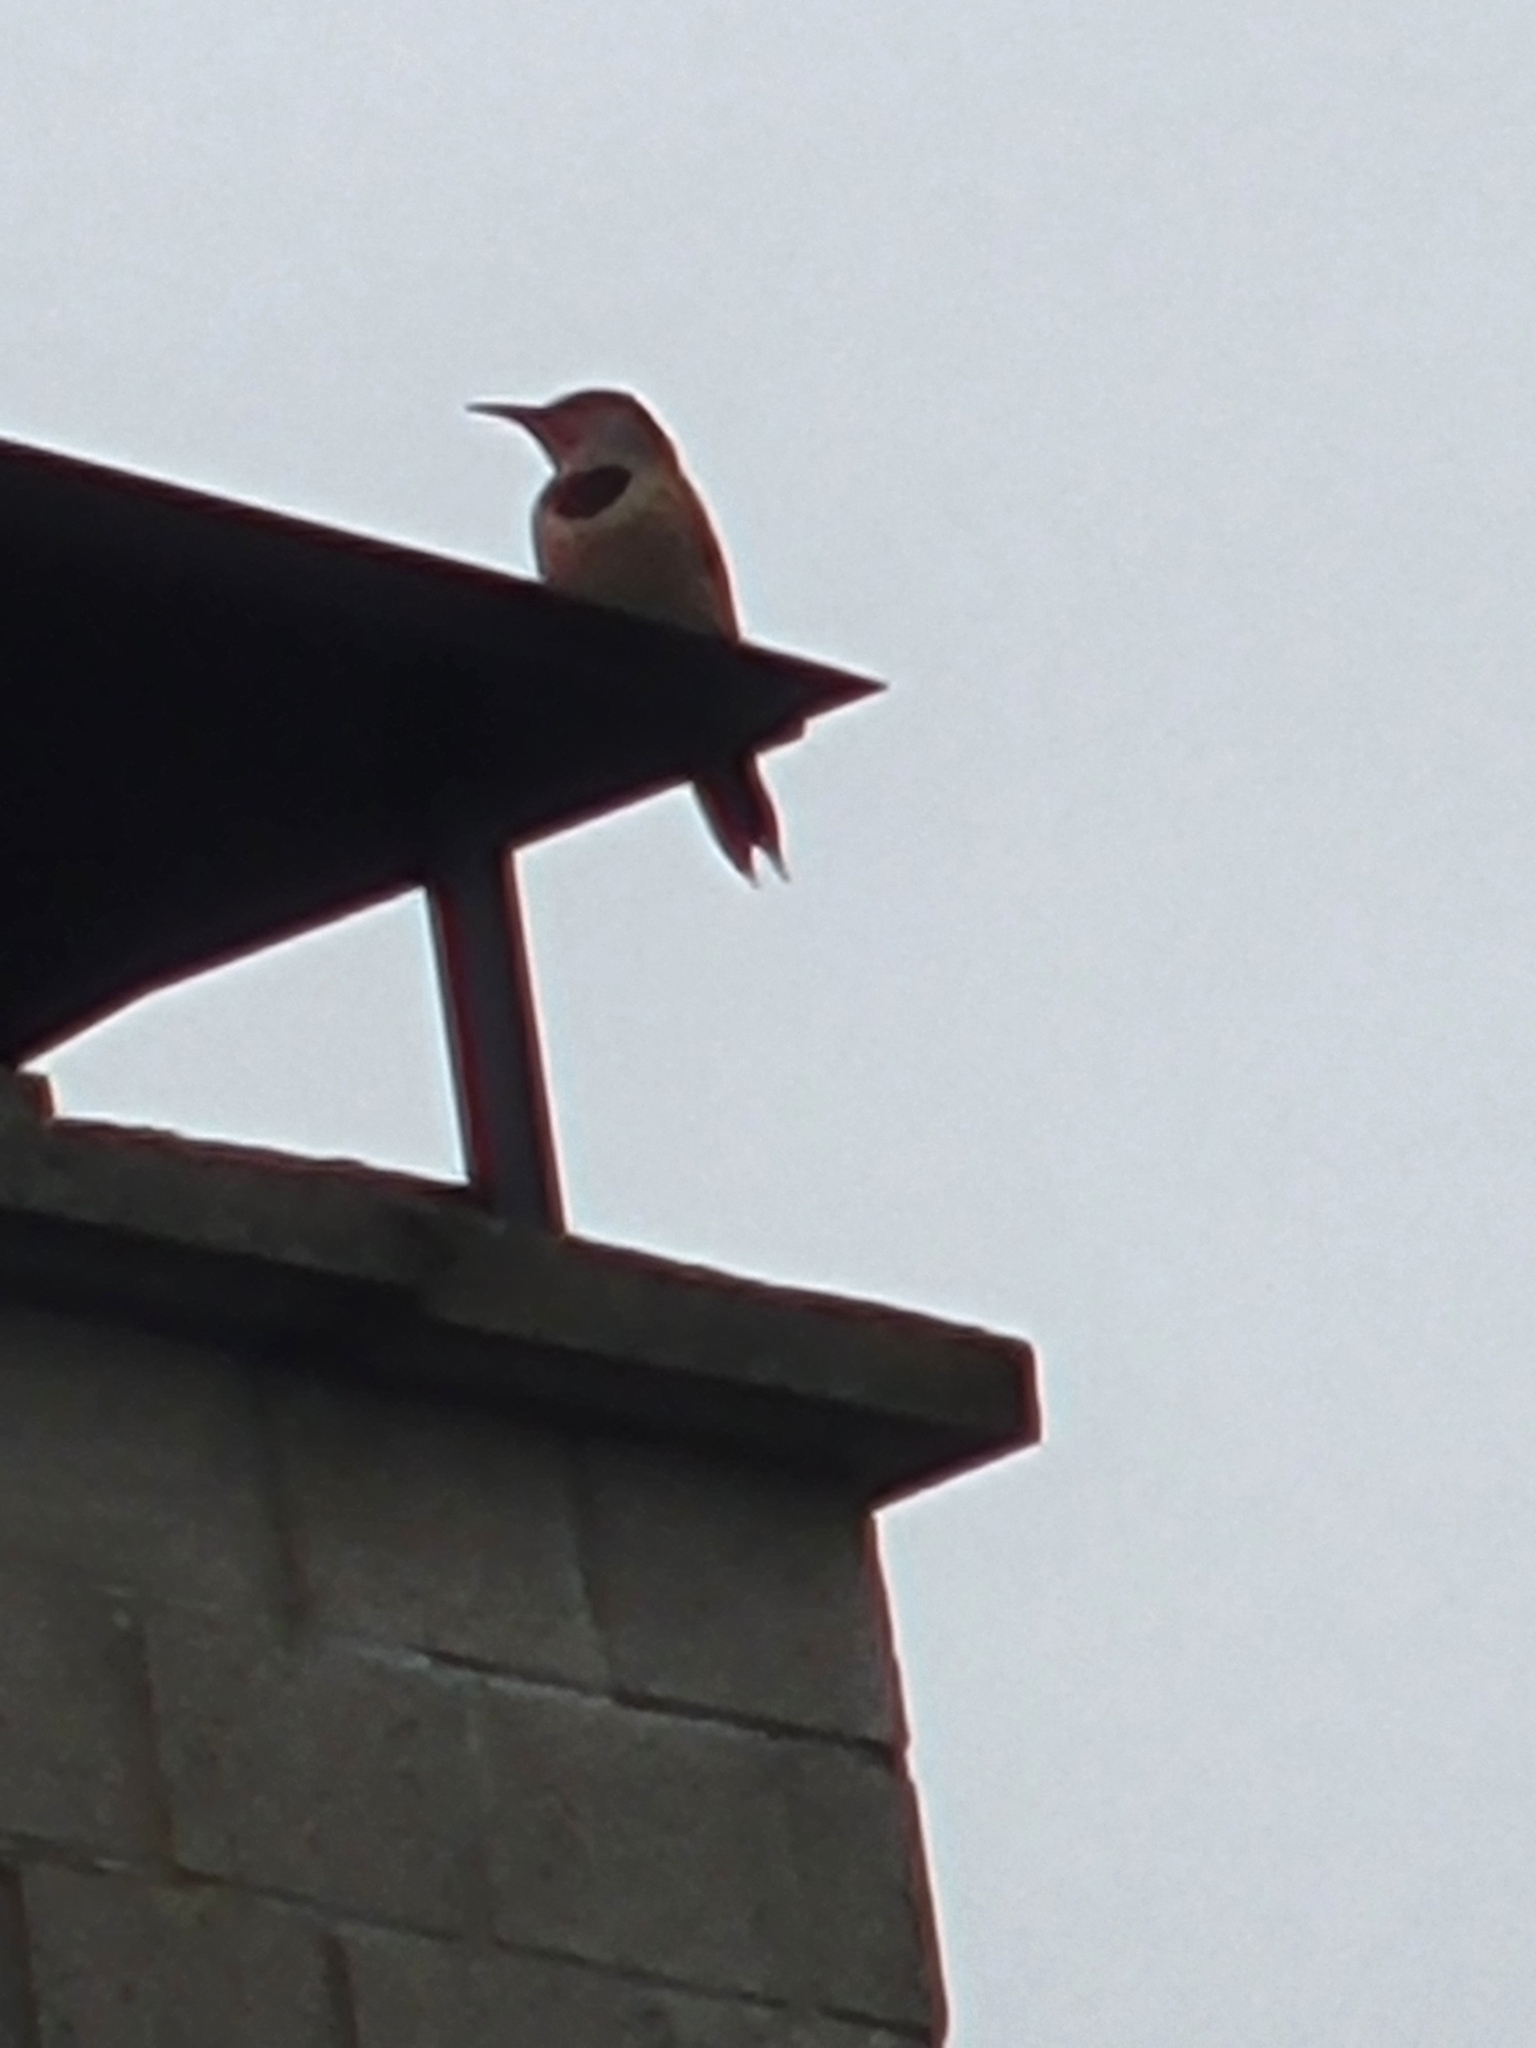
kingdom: Animalia
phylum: Chordata
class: Aves
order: Piciformes
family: Picidae
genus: Colaptes
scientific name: Colaptes auratus
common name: Northern flicker
